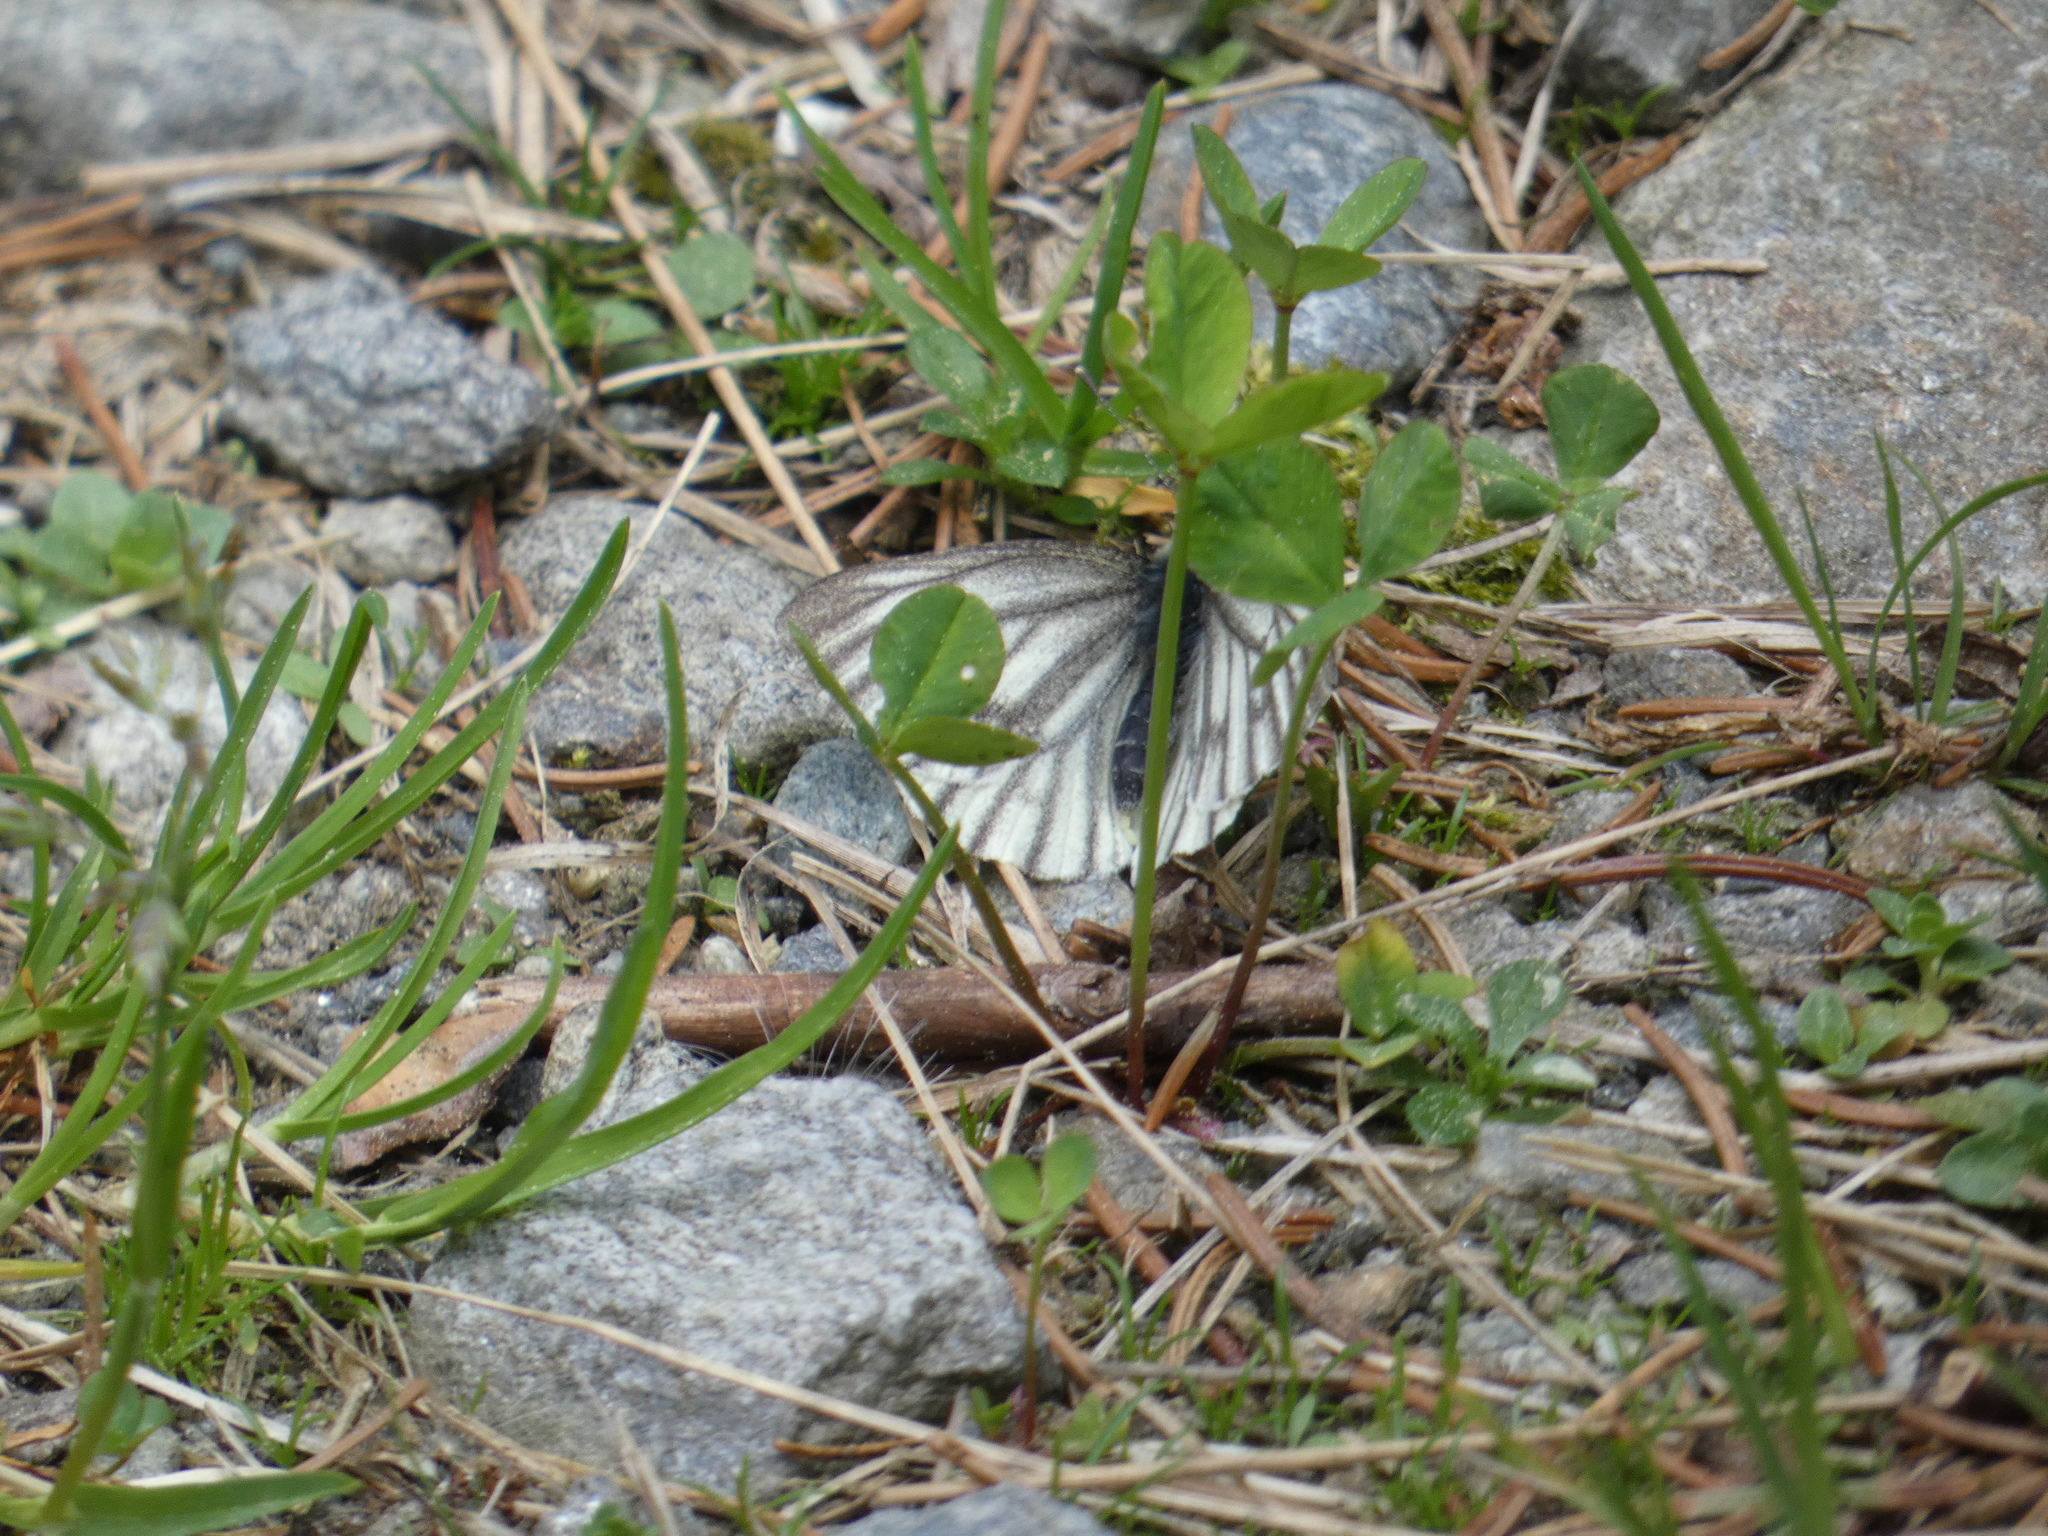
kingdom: Animalia
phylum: Arthropoda
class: Insecta
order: Lepidoptera
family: Pieridae
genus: Pieris
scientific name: Pieris bryoniae
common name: Mountain green-veined white
